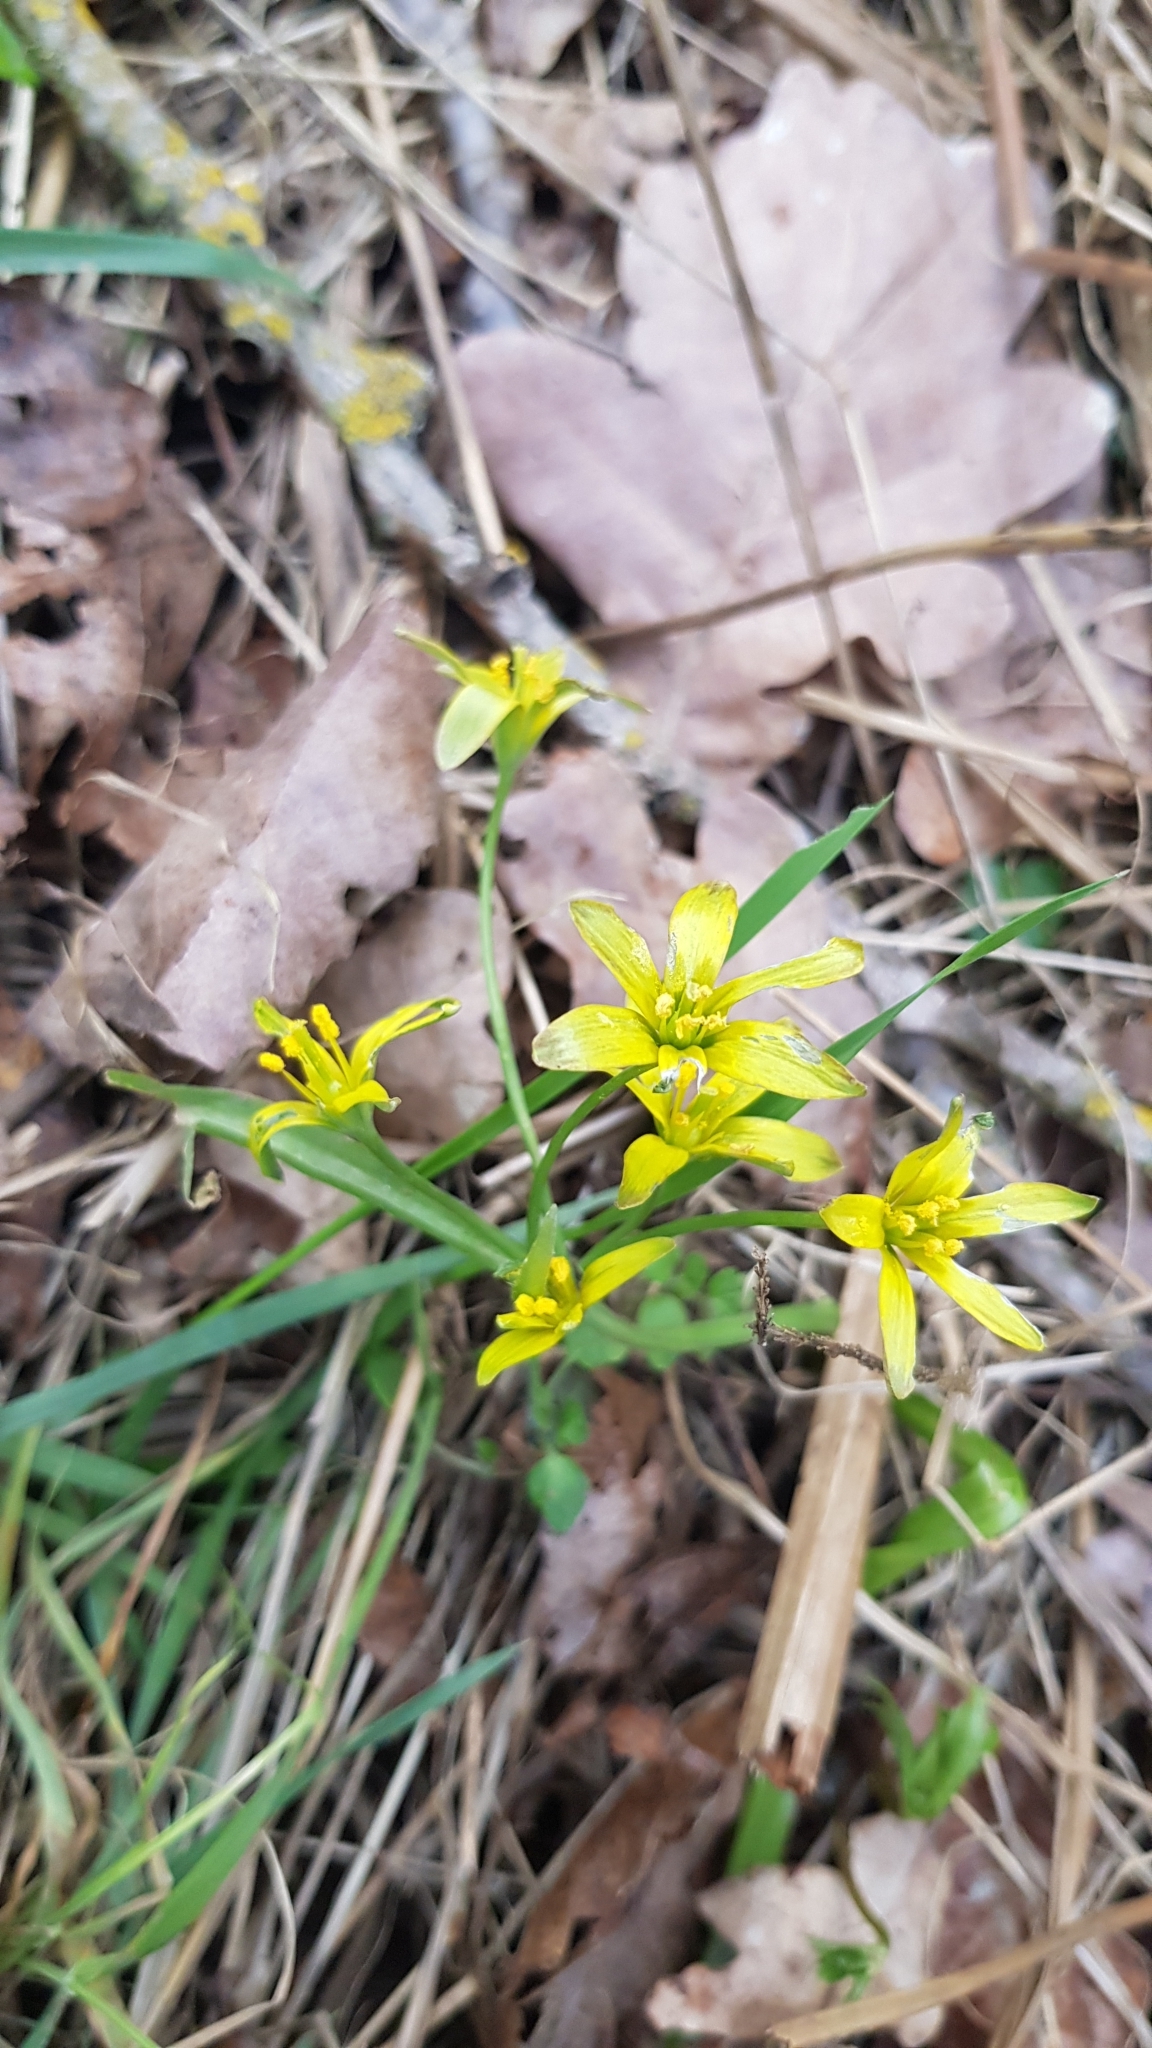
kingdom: Plantae
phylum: Tracheophyta
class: Liliopsida
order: Liliales
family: Liliaceae
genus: Gagea
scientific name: Gagea lutea
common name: Yellow star-of-bethlehem
